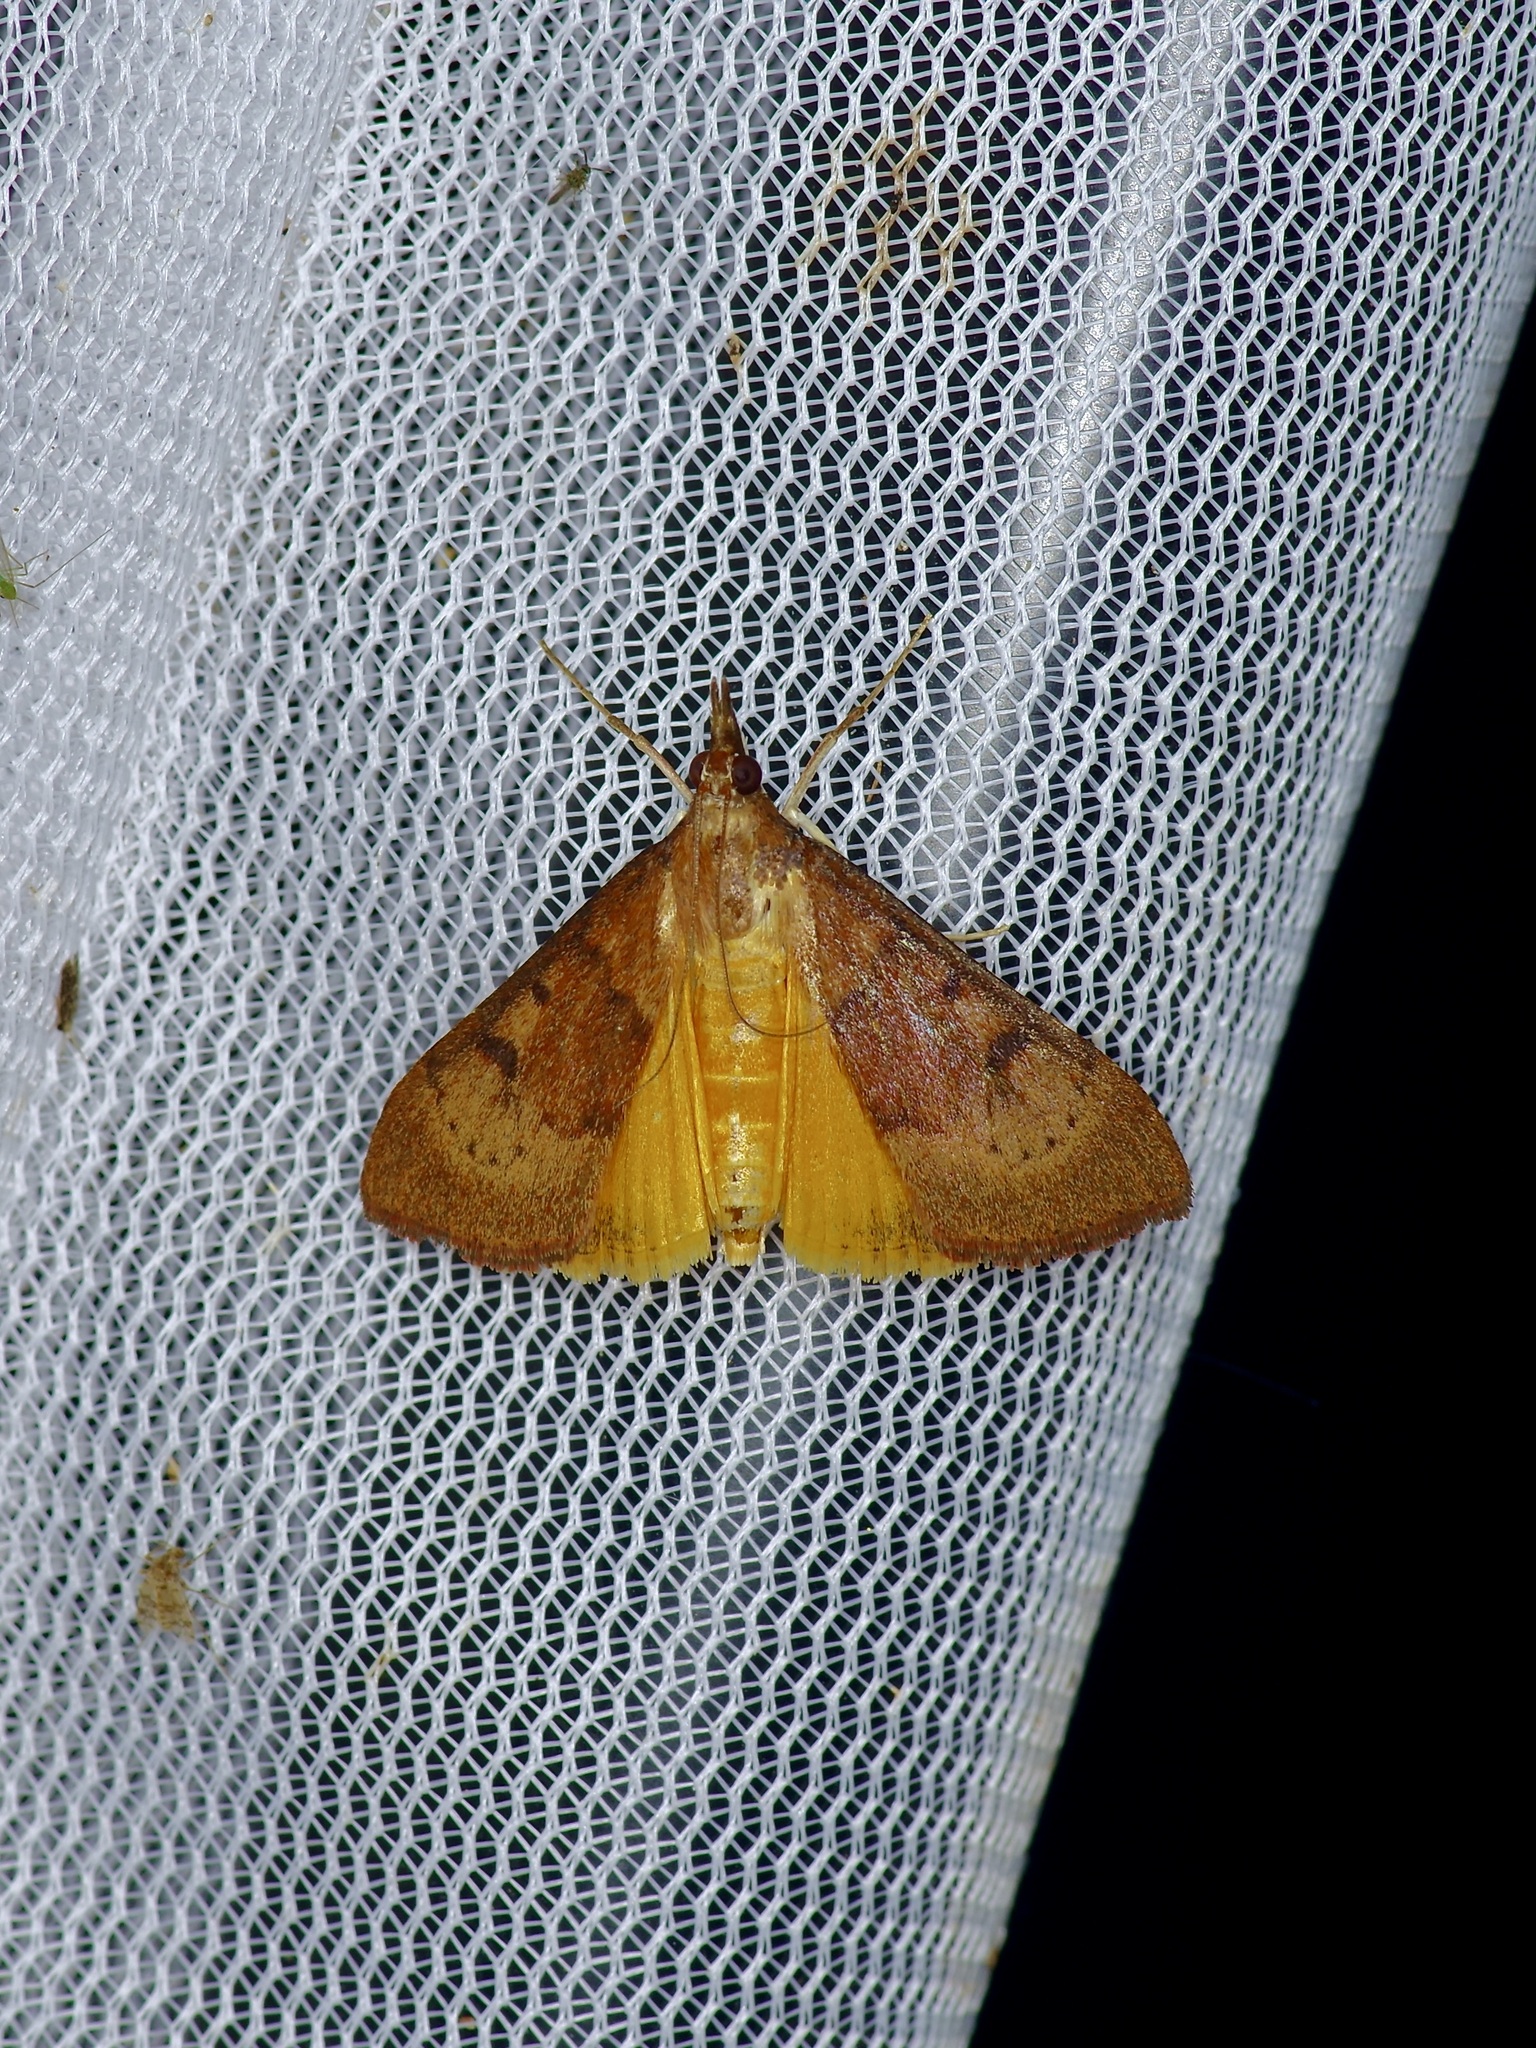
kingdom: Animalia
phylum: Arthropoda
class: Insecta
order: Lepidoptera
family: Crambidae
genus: Uresiphita
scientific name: Uresiphita reversalis
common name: Genista broom moth
